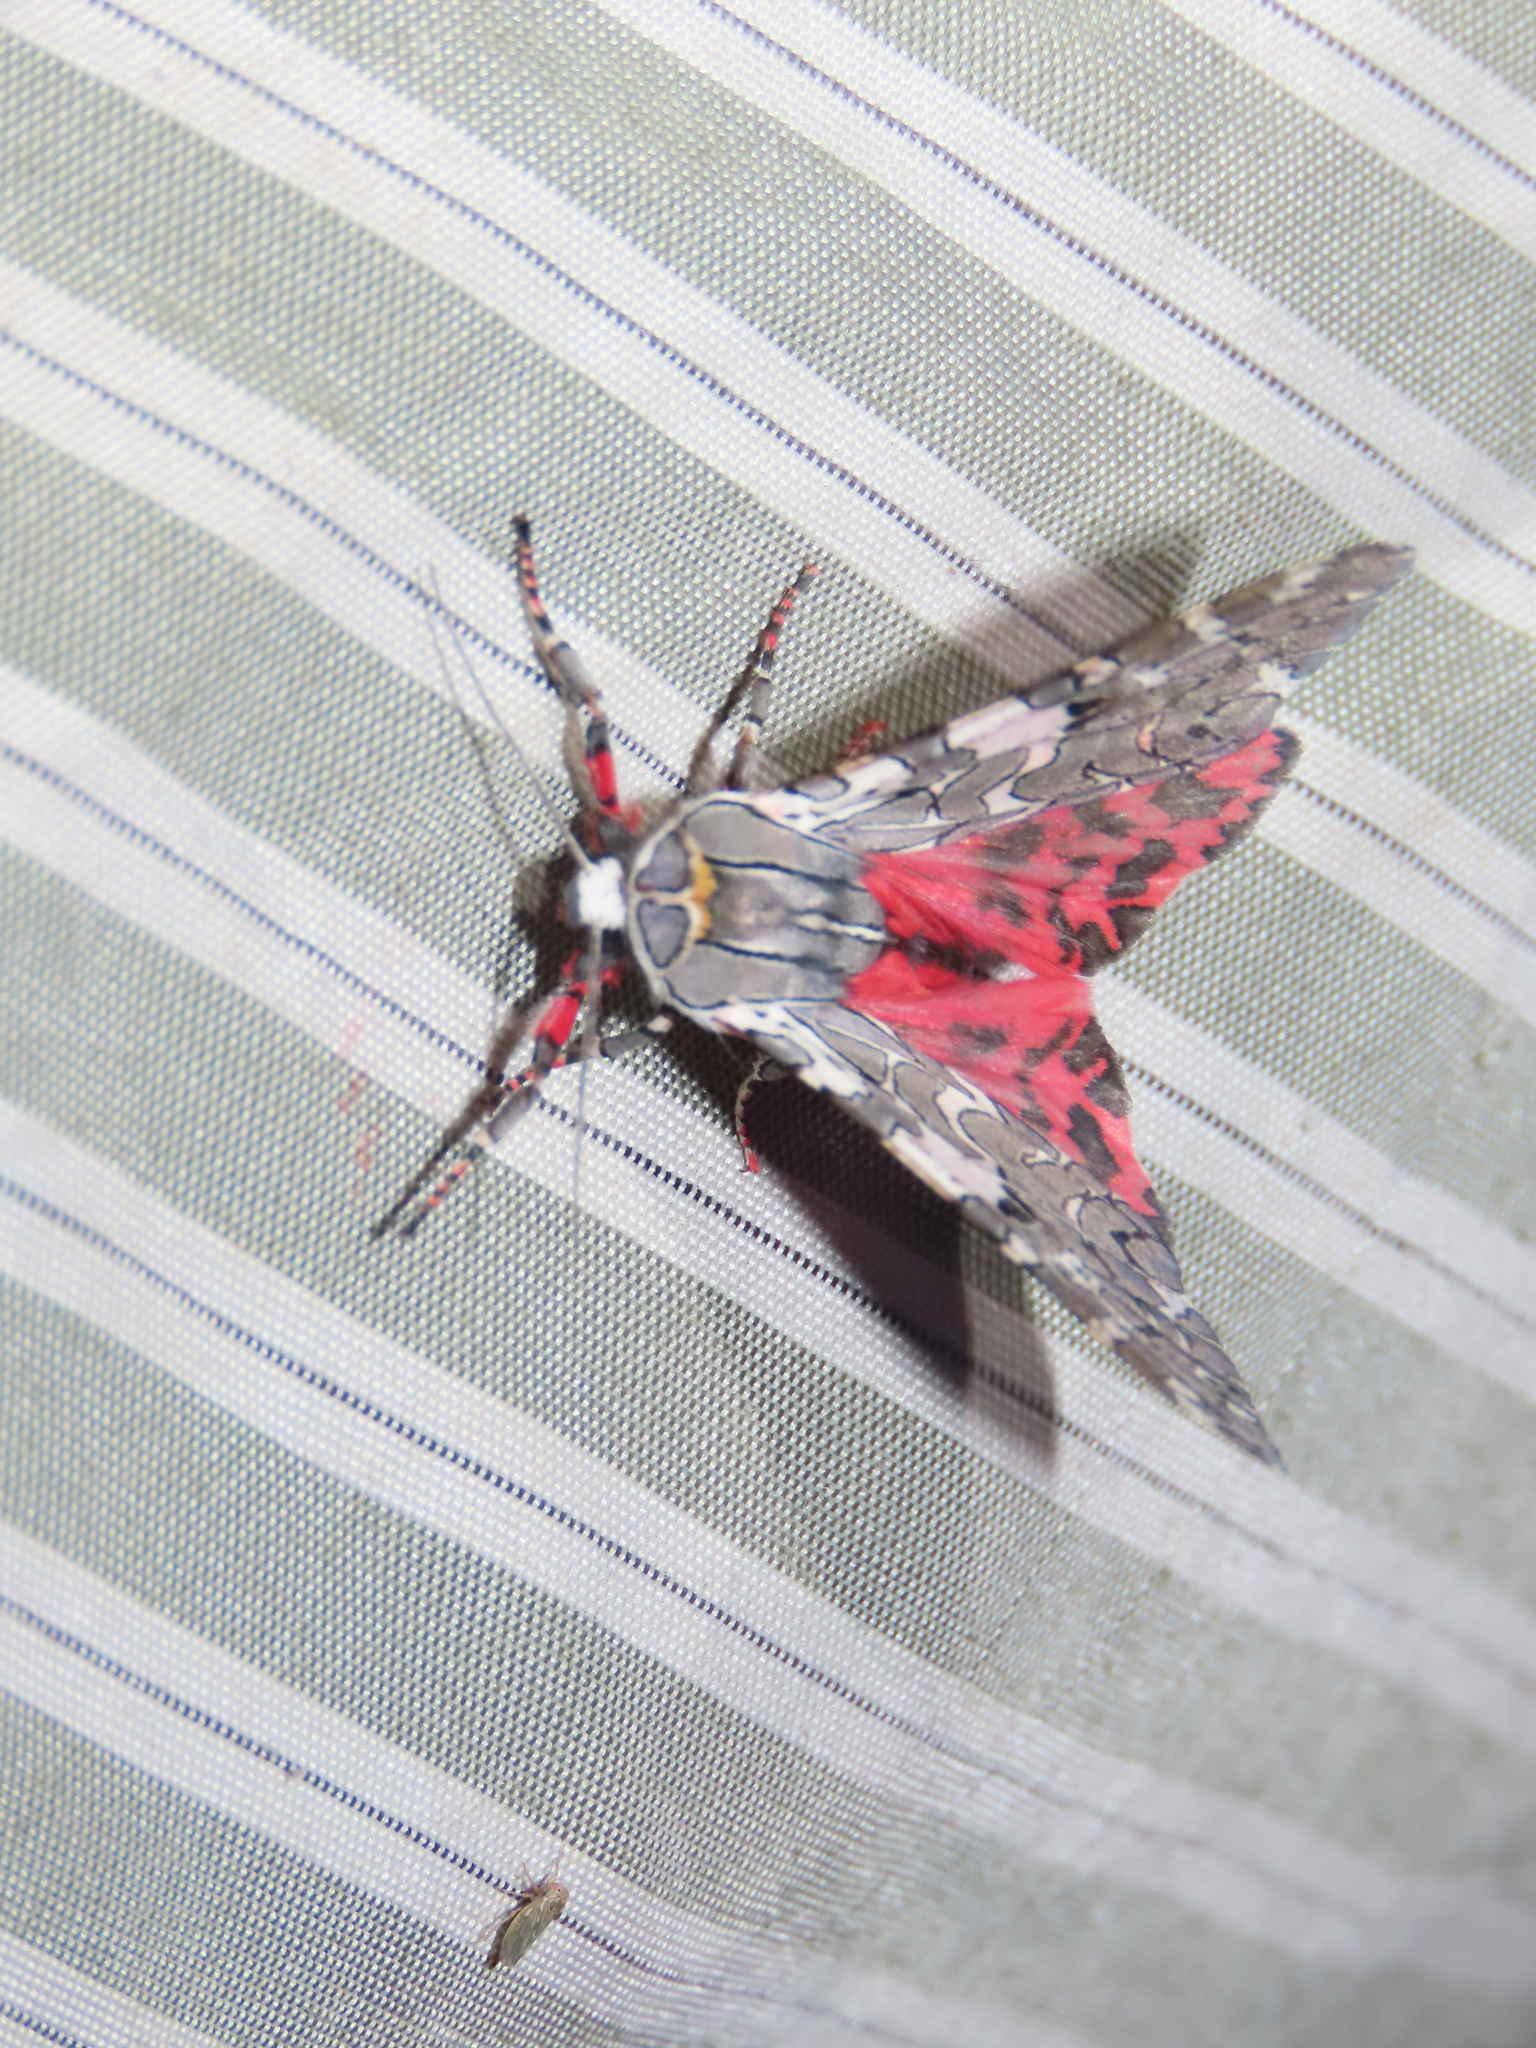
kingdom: Animalia
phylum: Arthropoda
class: Insecta
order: Lepidoptera
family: Erebidae
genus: Arachnis
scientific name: Arachnis picta
